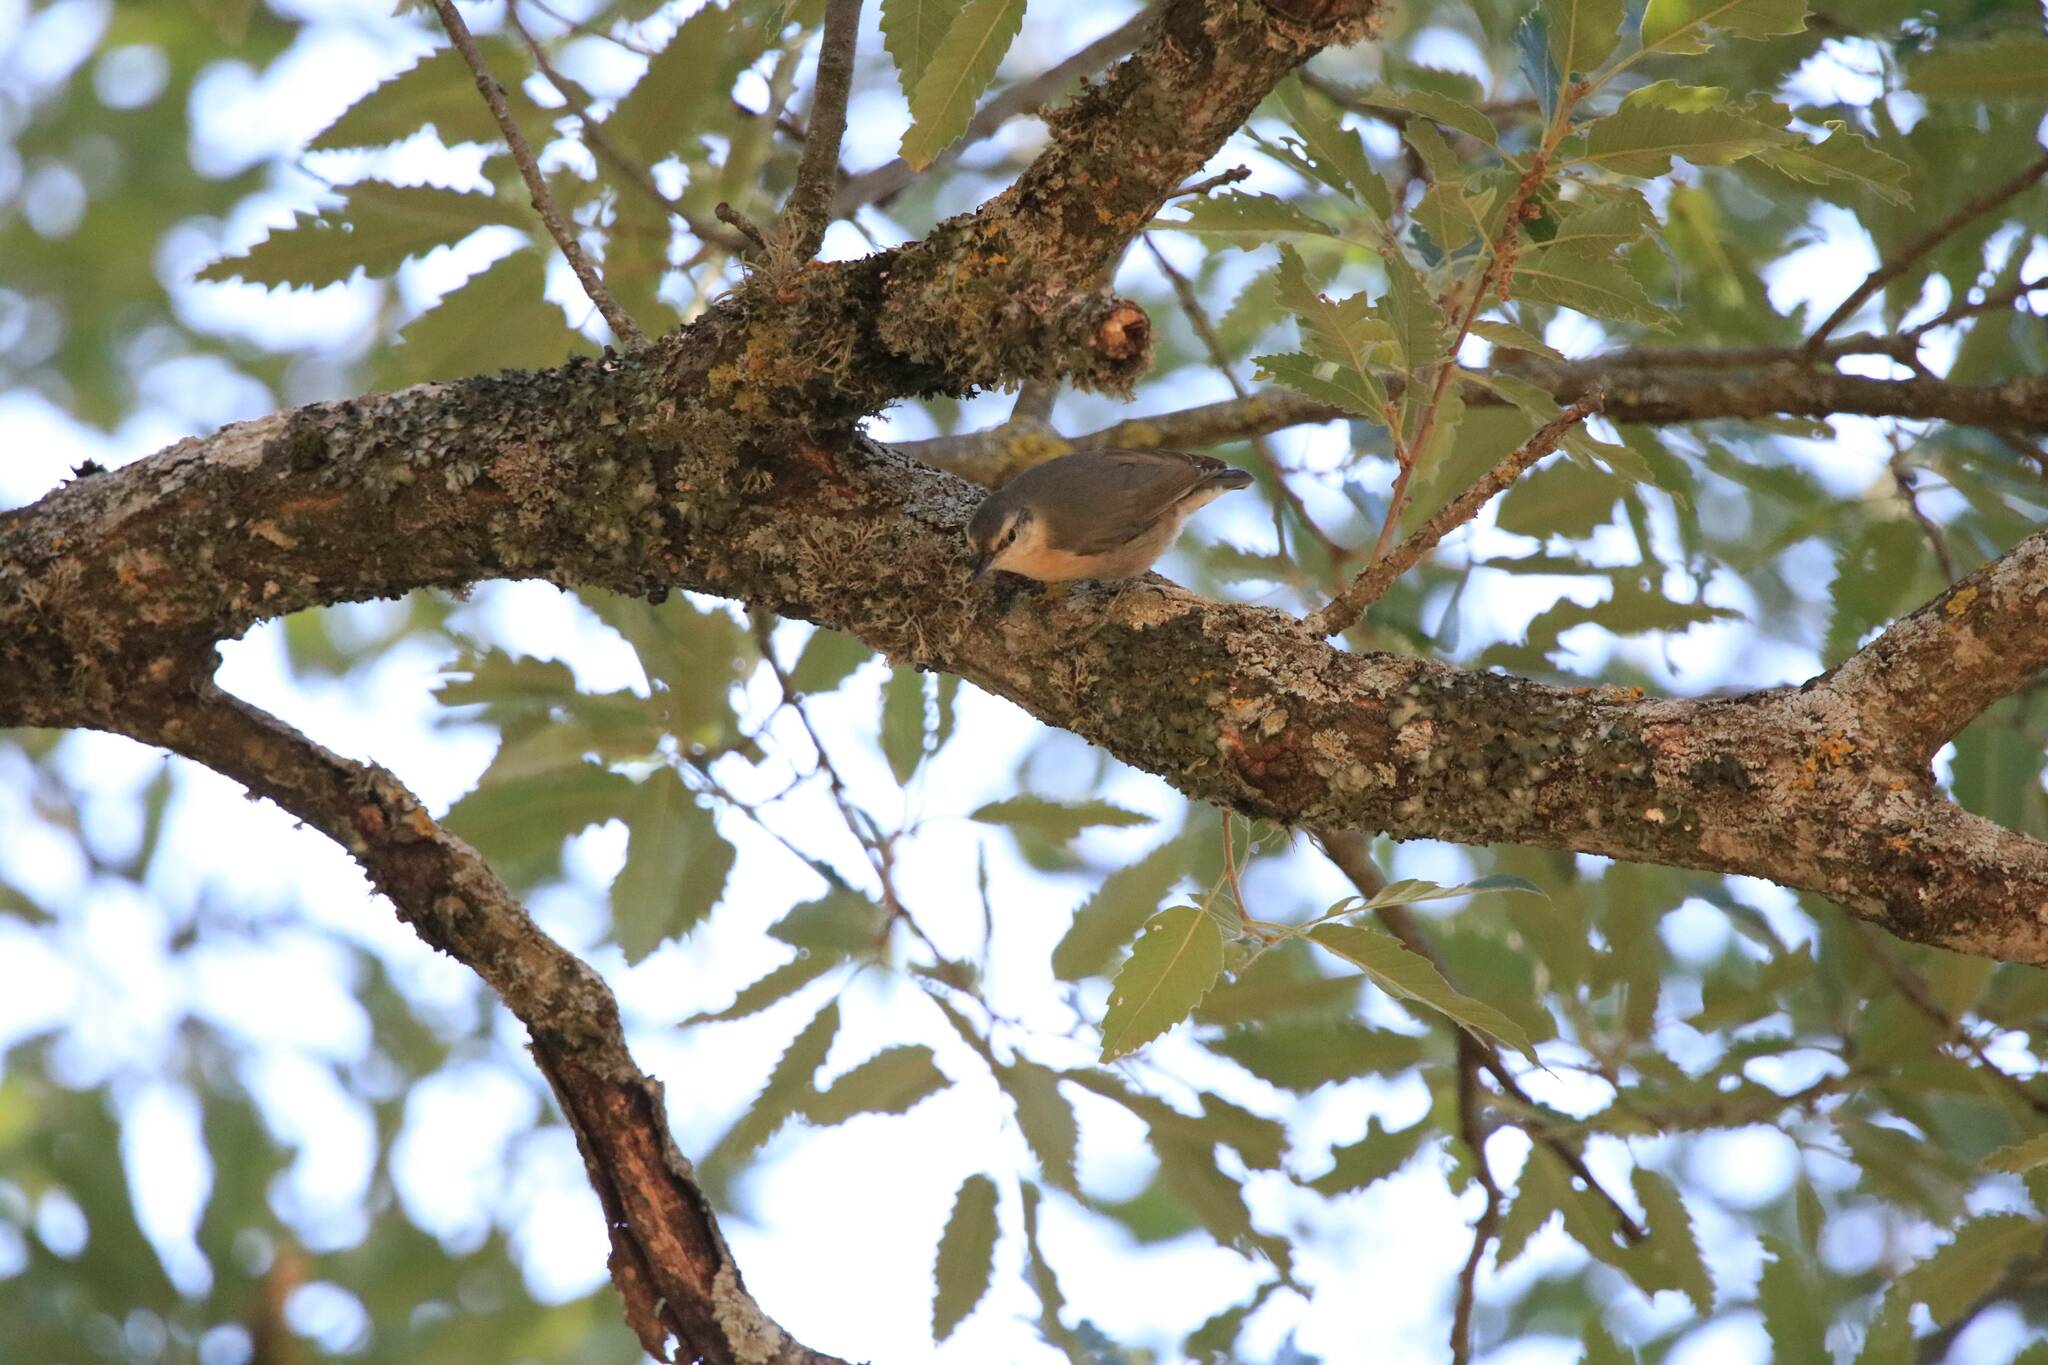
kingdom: Animalia
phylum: Chordata
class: Aves
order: Passeriformes
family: Sittidae
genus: Sitta
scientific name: Sitta ledanti
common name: Algerian nuthatch
